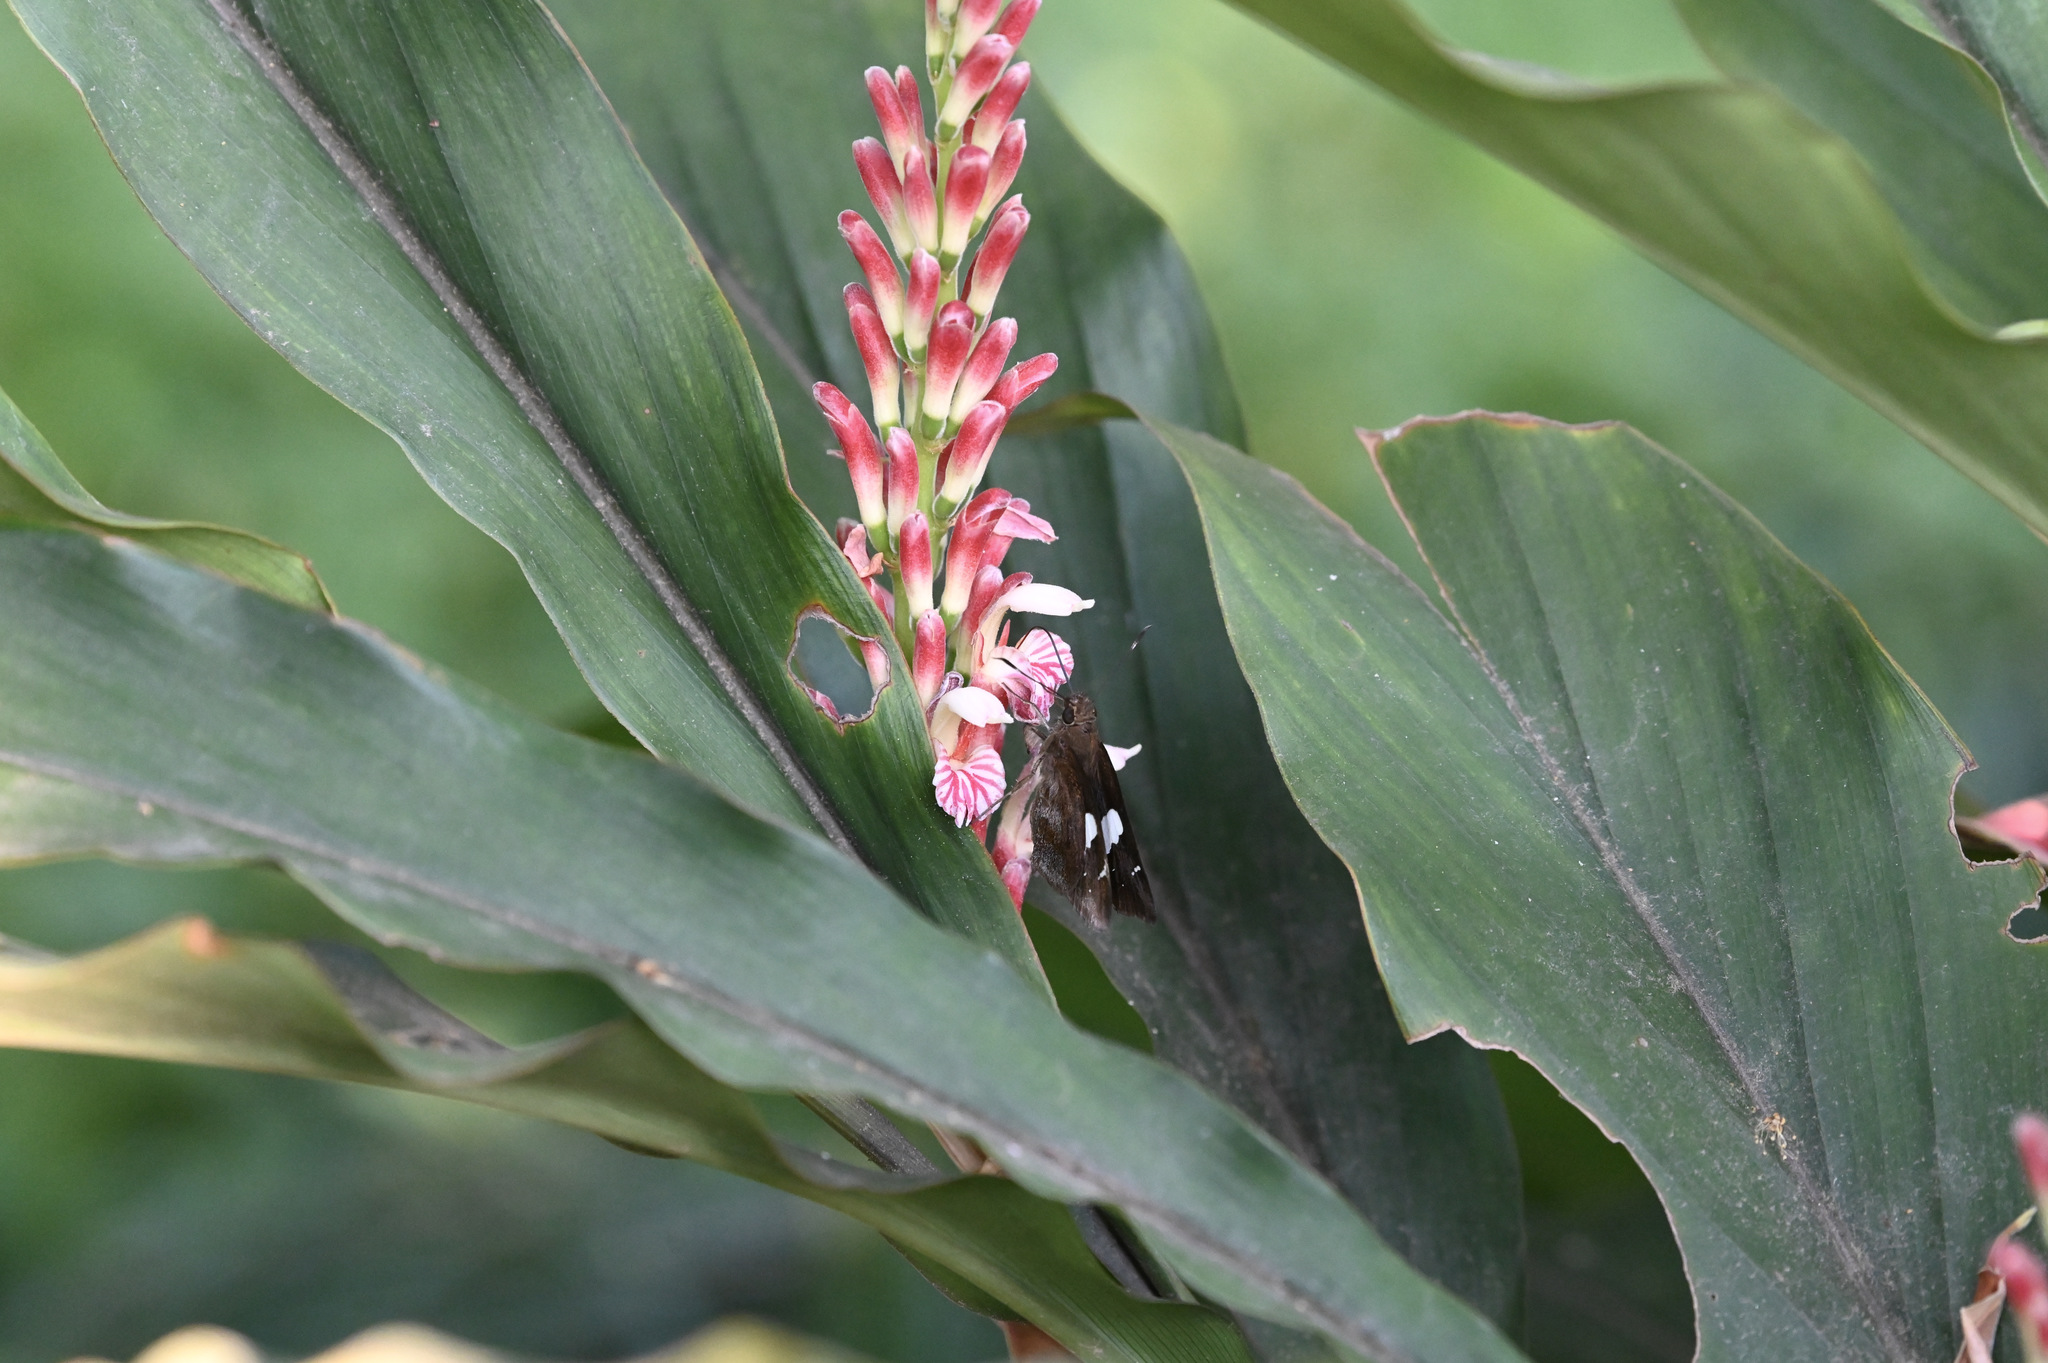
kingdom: Animalia
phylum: Arthropoda
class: Insecta
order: Lepidoptera
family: Hesperiidae
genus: Notocrypta
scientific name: Notocrypta curvifascia
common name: Restricted demon
